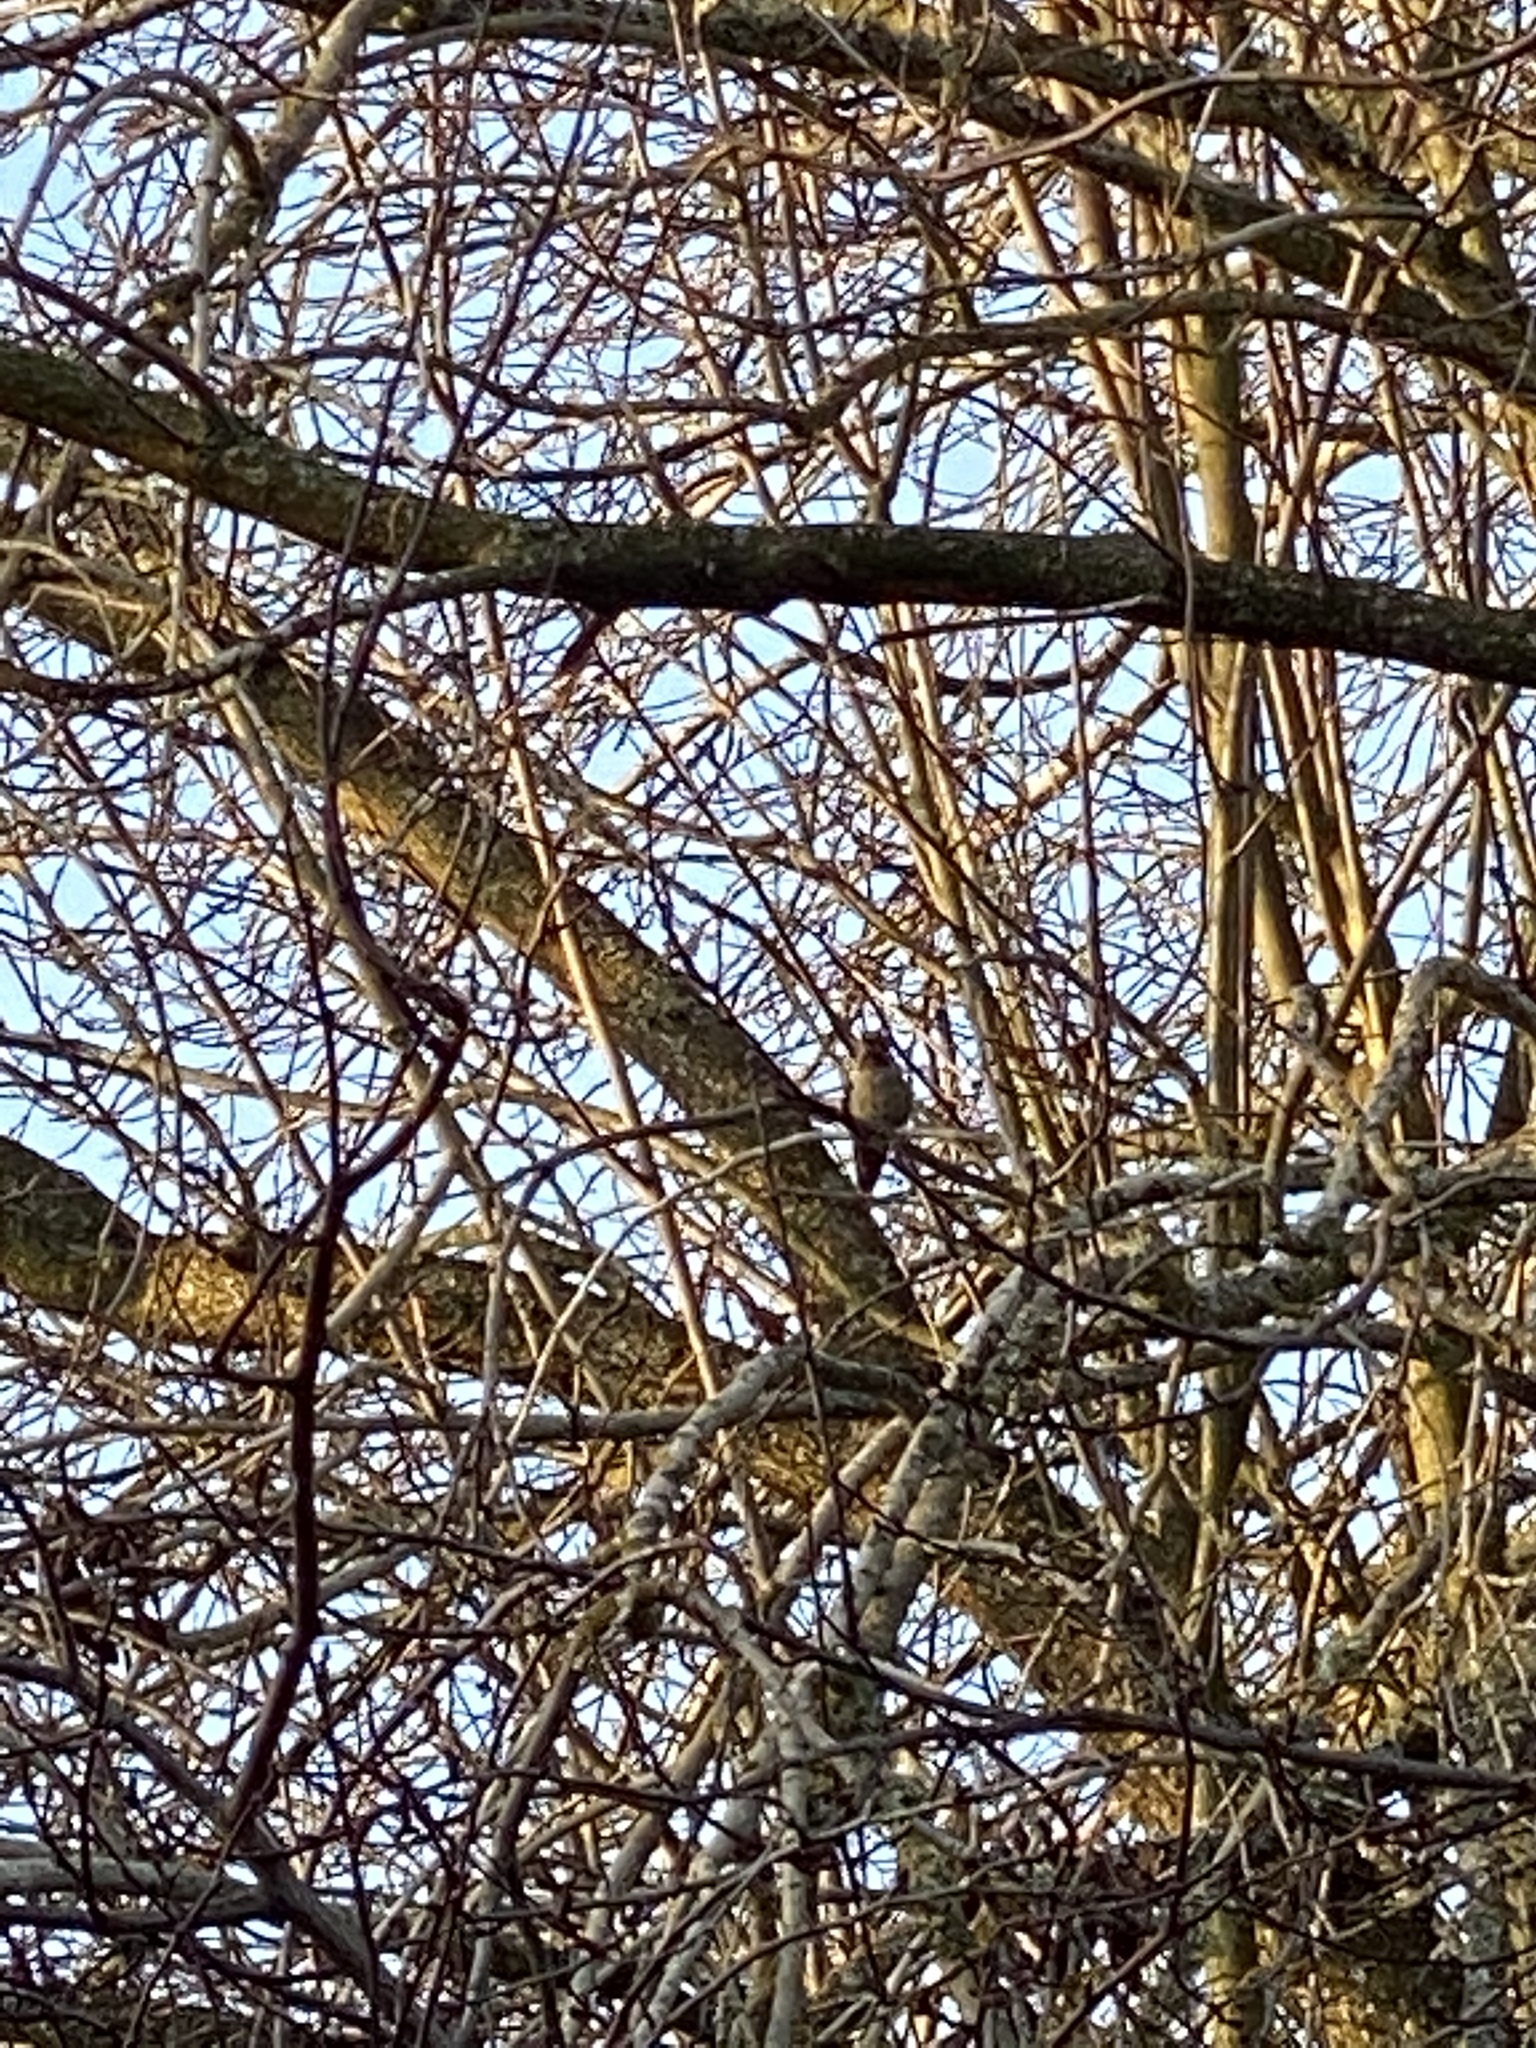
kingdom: Animalia
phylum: Chordata
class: Aves
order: Apodiformes
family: Trochilidae
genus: Calypte
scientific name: Calypte anna
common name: Anna's hummingbird
